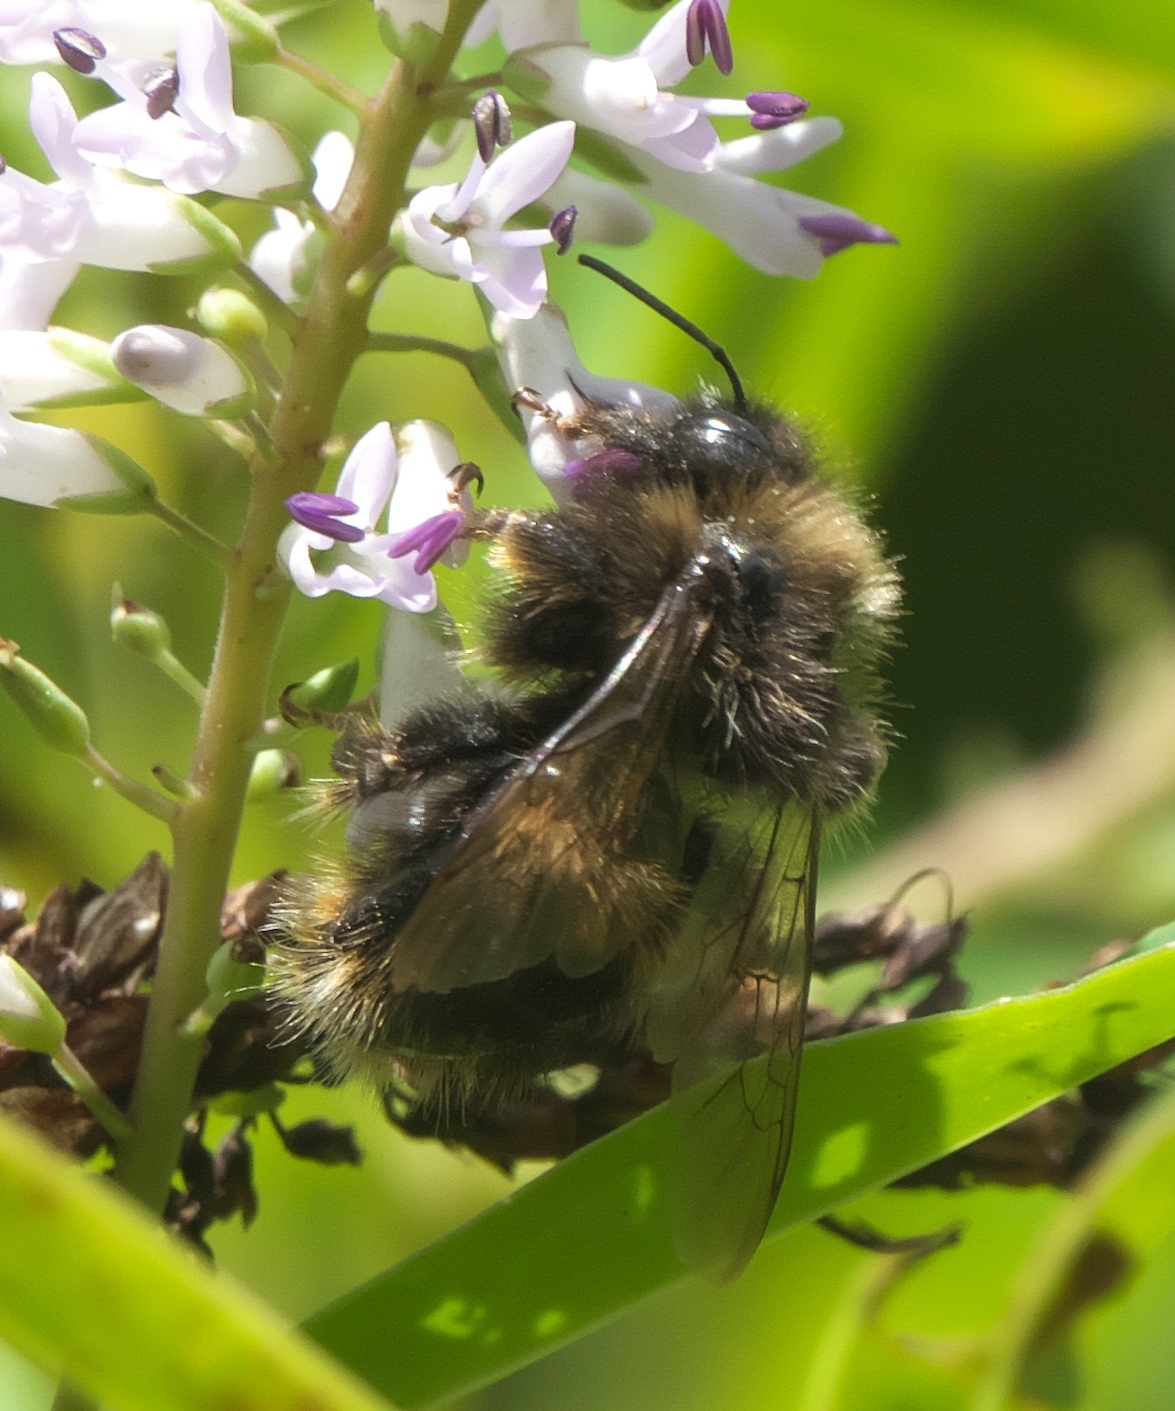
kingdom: Animalia
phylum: Arthropoda
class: Insecta
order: Hymenoptera
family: Apidae
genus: Bombus
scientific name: Bombus terrestris
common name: Buff-tailed bumblebee
